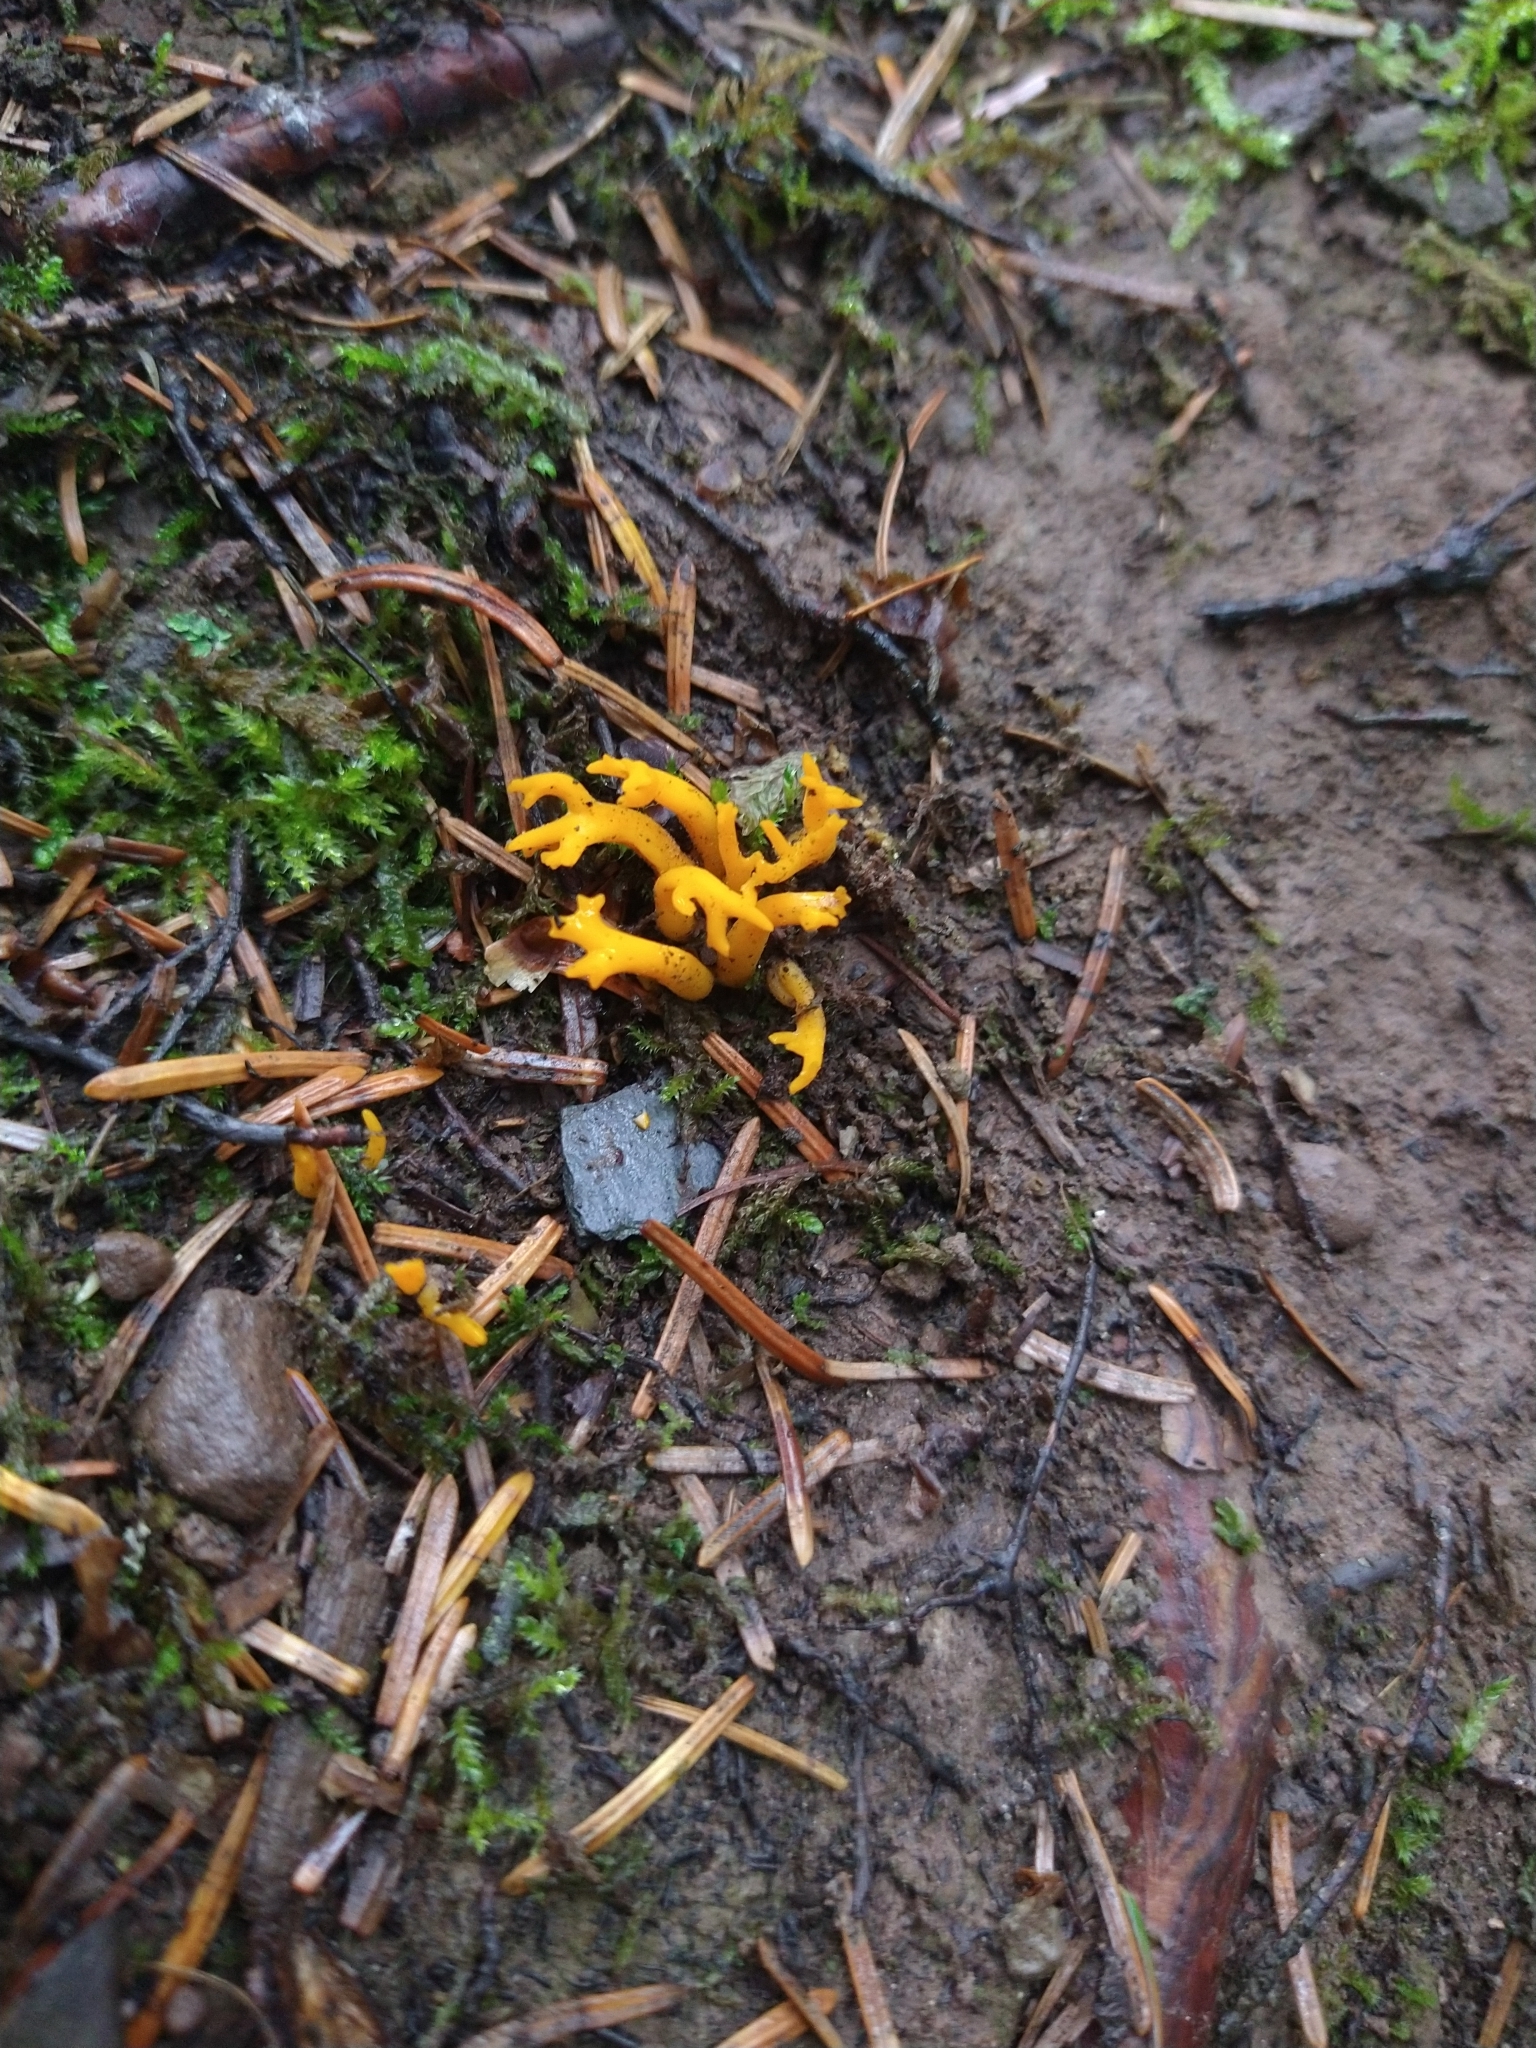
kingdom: Fungi
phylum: Basidiomycota
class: Dacrymycetes
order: Dacrymycetales
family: Dacrymycetaceae
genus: Calocera
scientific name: Calocera viscosa
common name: Yellow stagshorn
